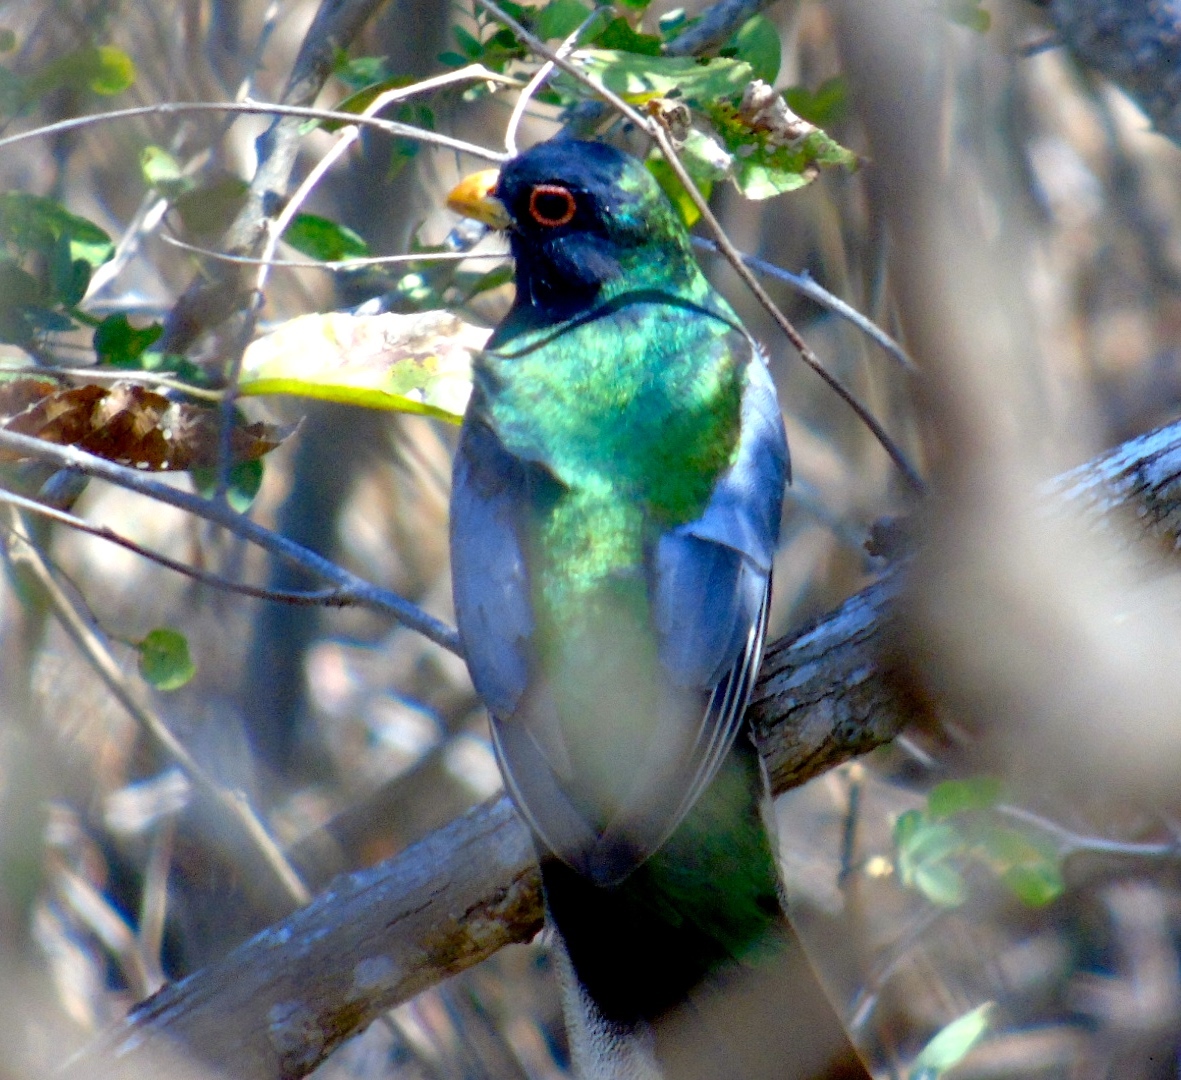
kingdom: Animalia
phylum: Chordata
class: Aves
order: Trogoniformes
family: Trogonidae
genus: Trogon
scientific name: Trogon elegans
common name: Elegant trogon
